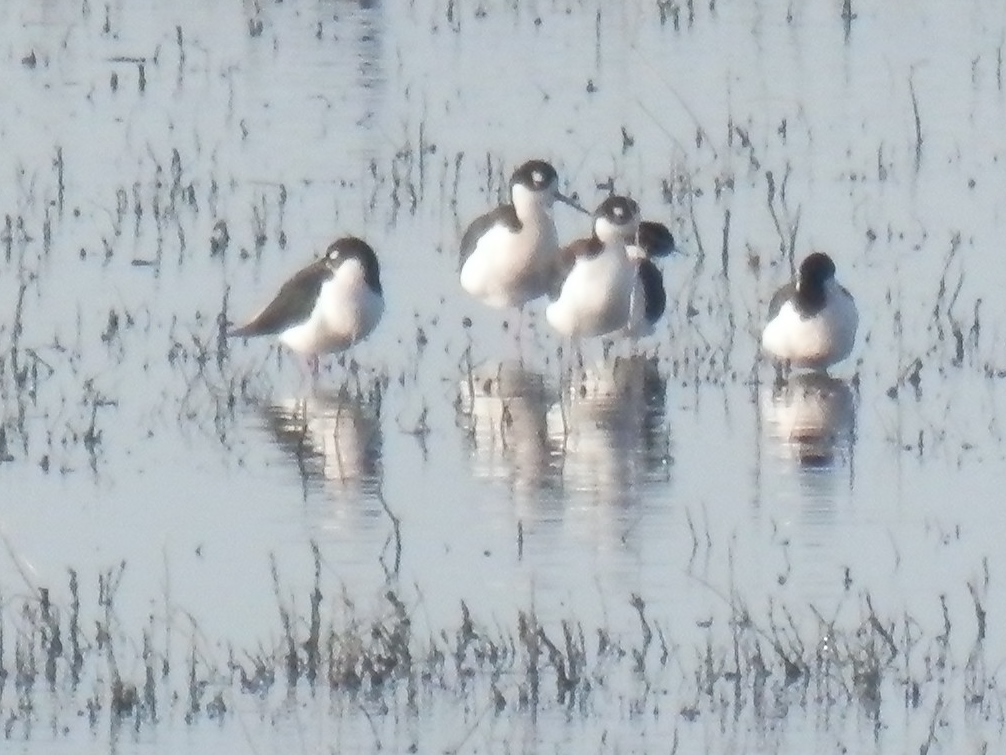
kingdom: Animalia
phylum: Chordata
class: Aves
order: Charadriiformes
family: Recurvirostridae
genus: Himantopus
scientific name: Himantopus mexicanus
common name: Black-necked stilt
